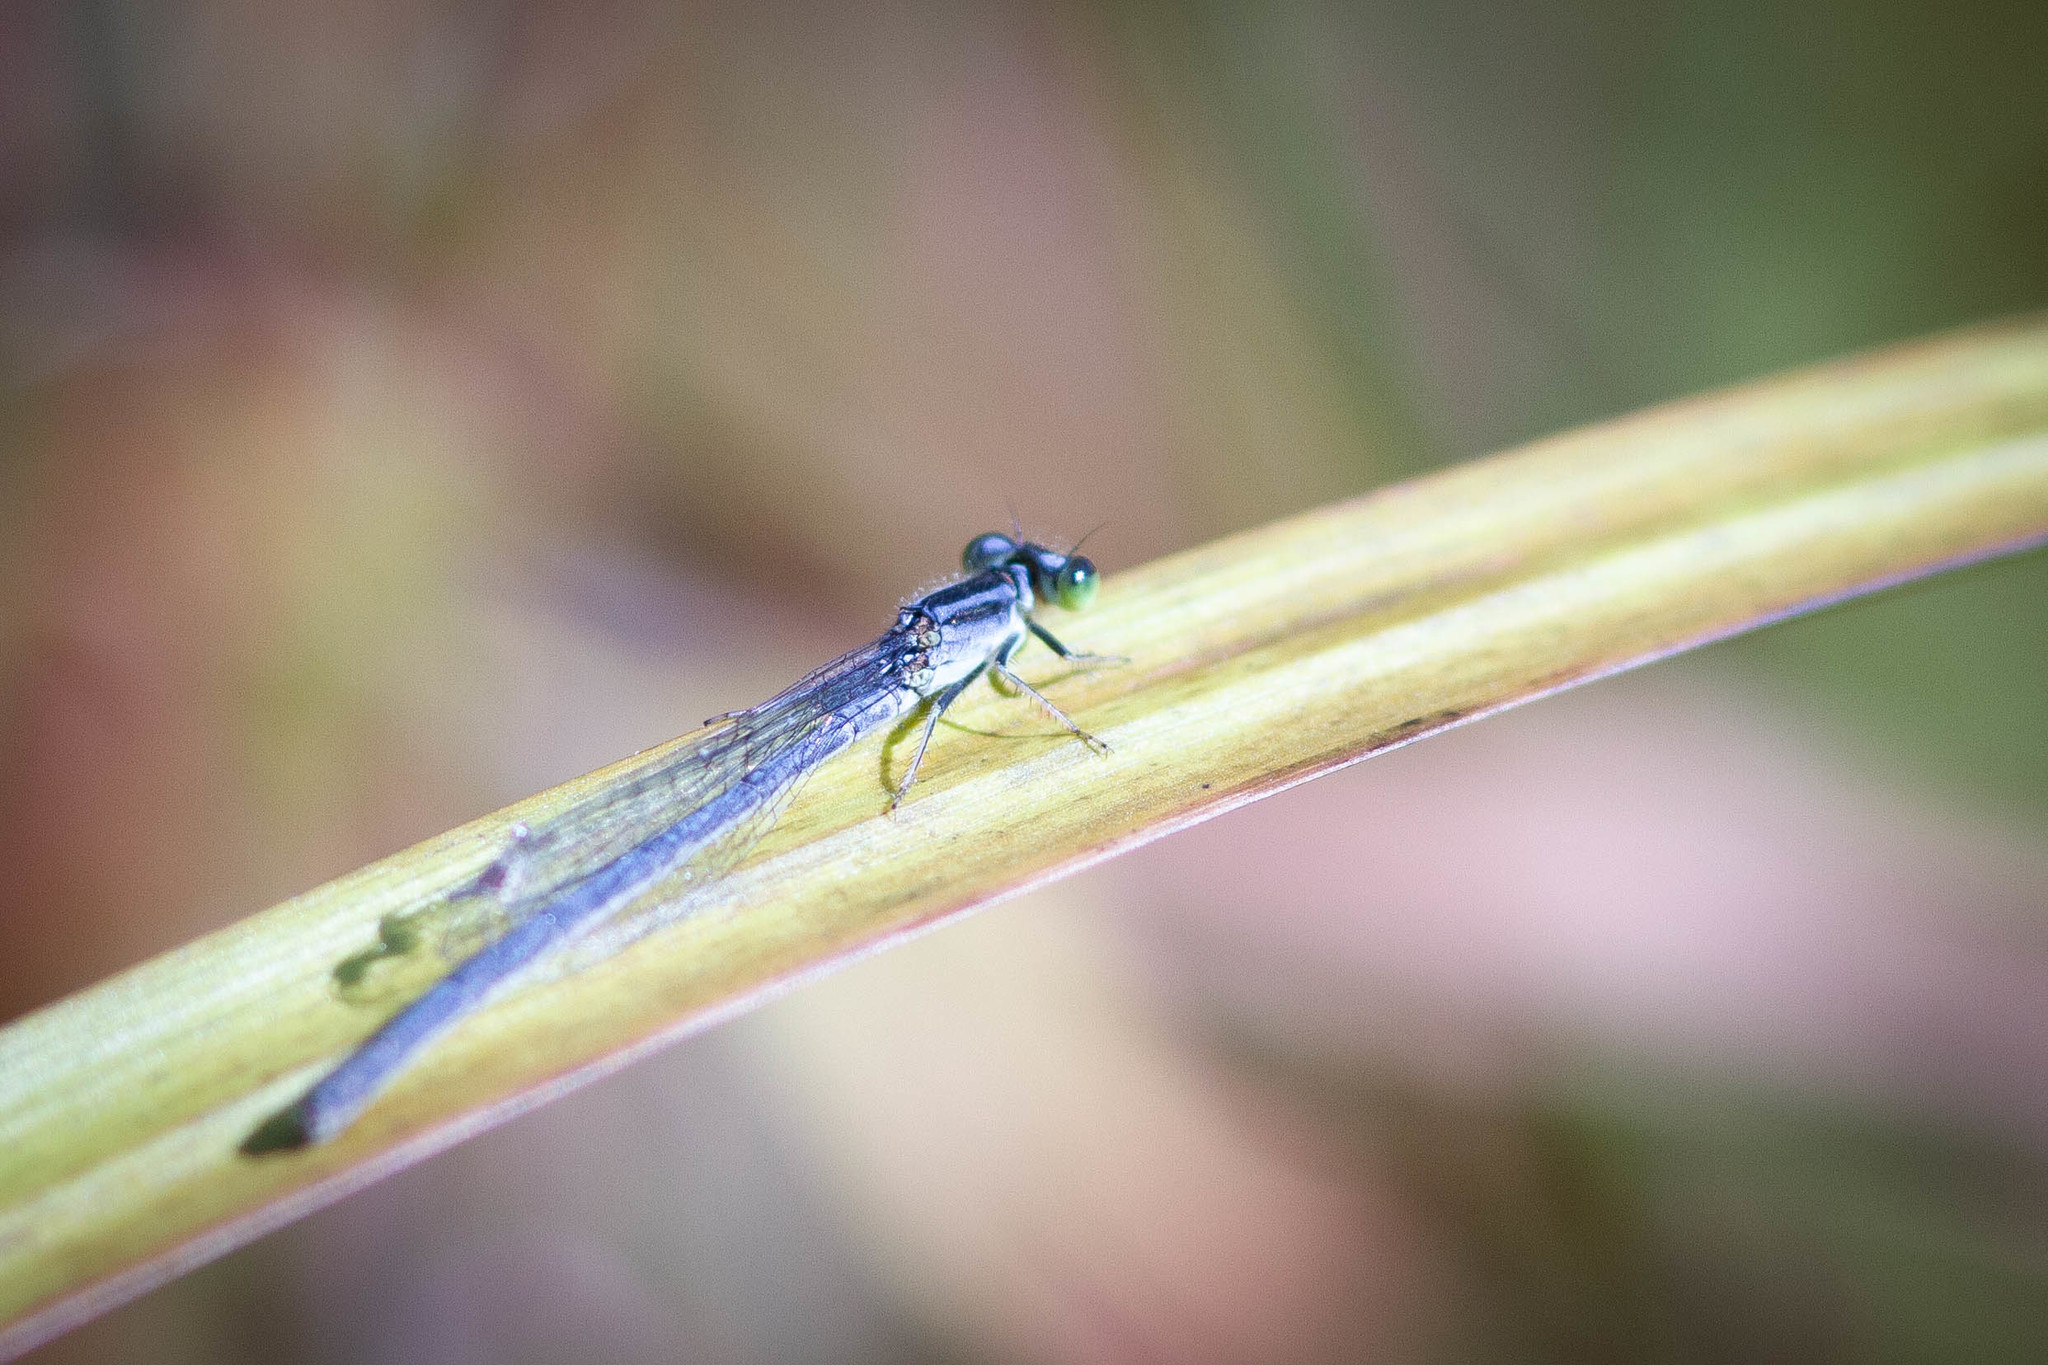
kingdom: Animalia
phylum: Arthropoda
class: Insecta
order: Odonata
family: Coenagrionidae
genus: Ischnura
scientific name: Ischnura verticalis
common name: Eastern forktail
